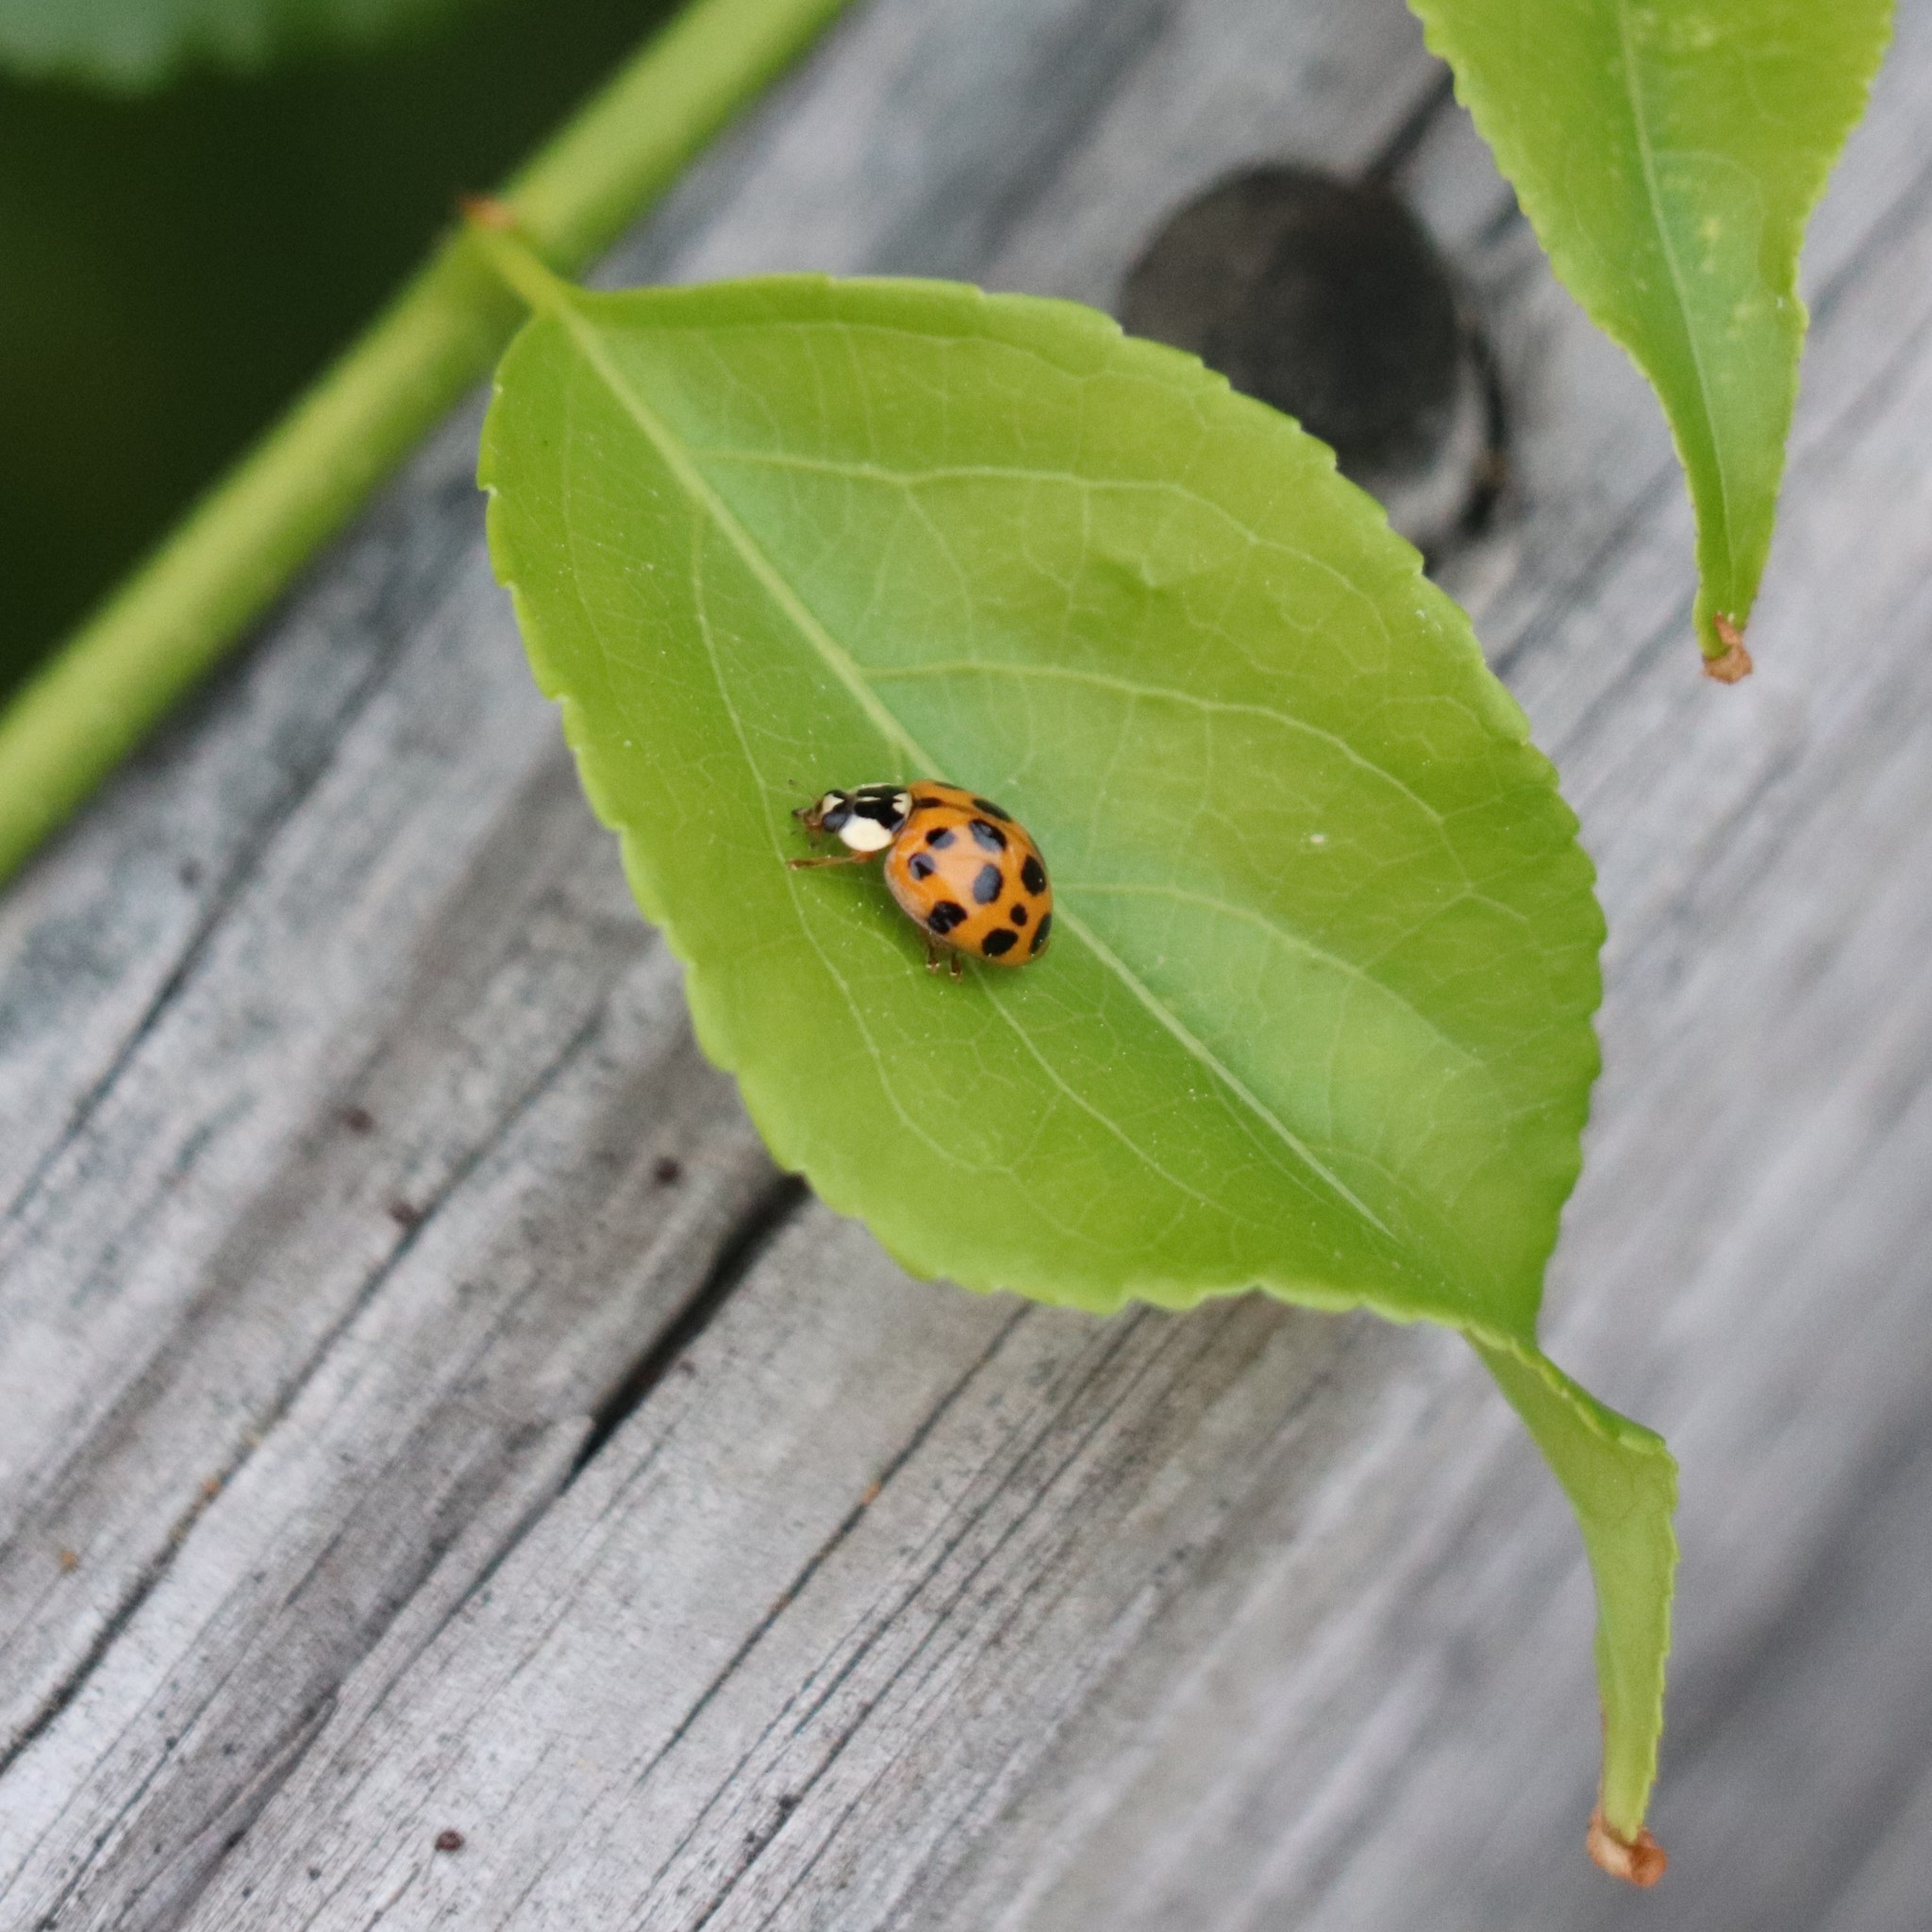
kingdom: Animalia
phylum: Arthropoda
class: Insecta
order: Coleoptera
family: Coccinellidae
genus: Harmonia
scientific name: Harmonia axyridis
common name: Harlequin ladybird
